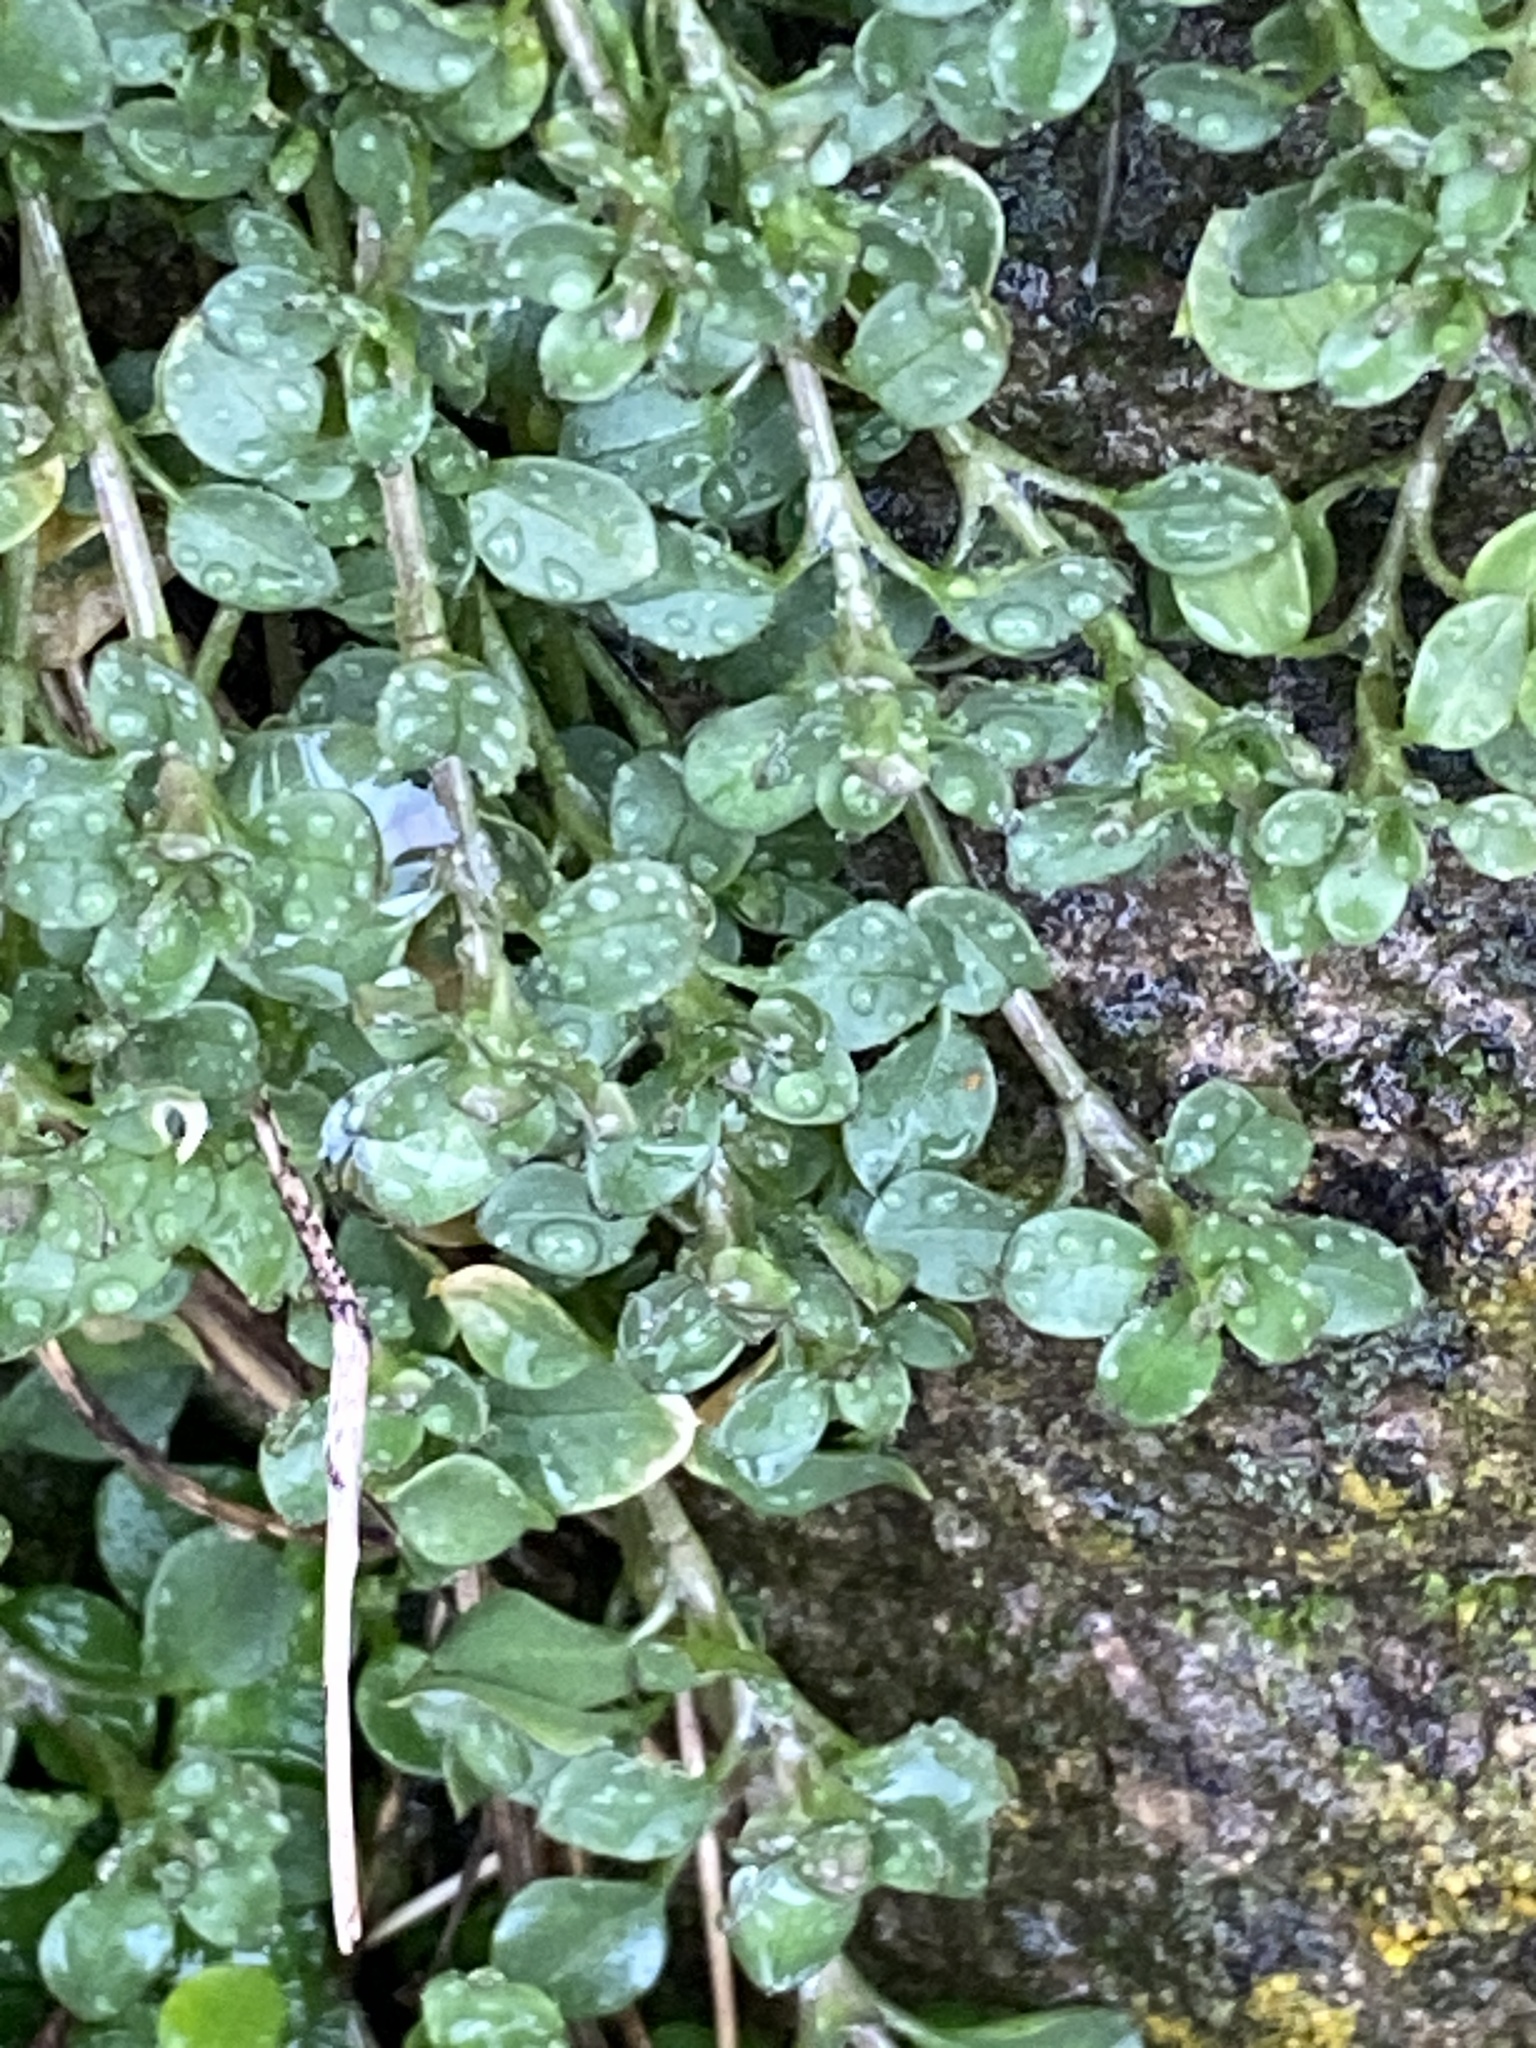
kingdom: Plantae
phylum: Tracheophyta
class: Magnoliopsida
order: Caryophyllales
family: Caryophyllaceae
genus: Stellaria
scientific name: Stellaria media
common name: Common chickweed
